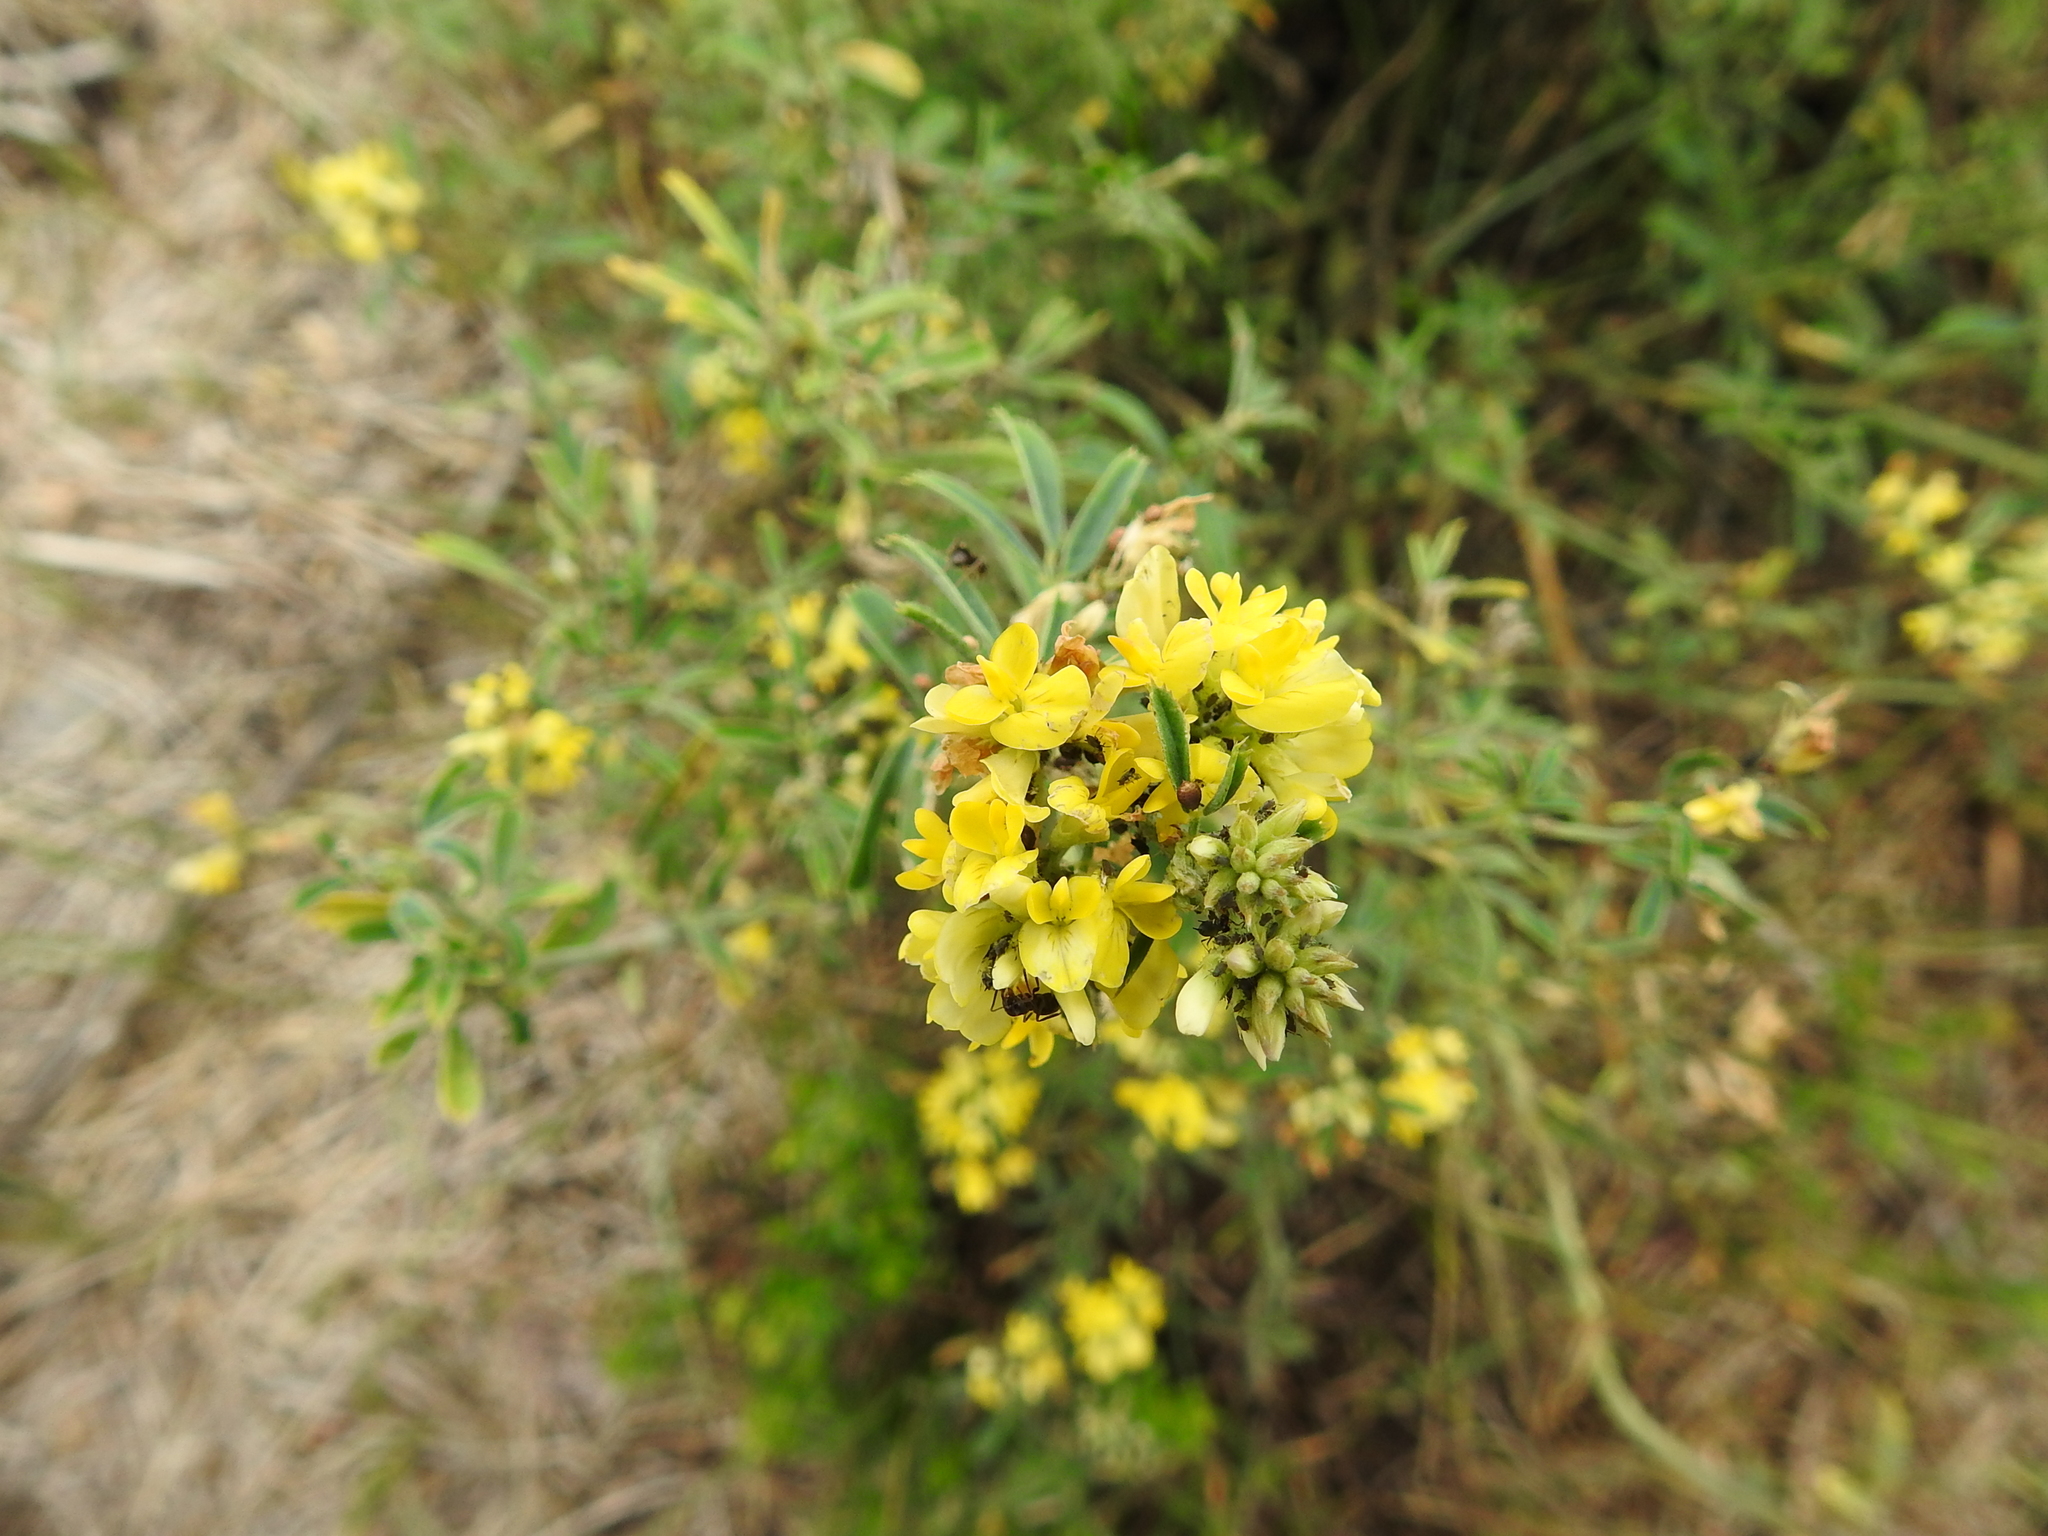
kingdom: Plantae
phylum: Tracheophyta
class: Magnoliopsida
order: Fabales
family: Fabaceae
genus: Medicago
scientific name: Medicago falcata
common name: Sickle medick
